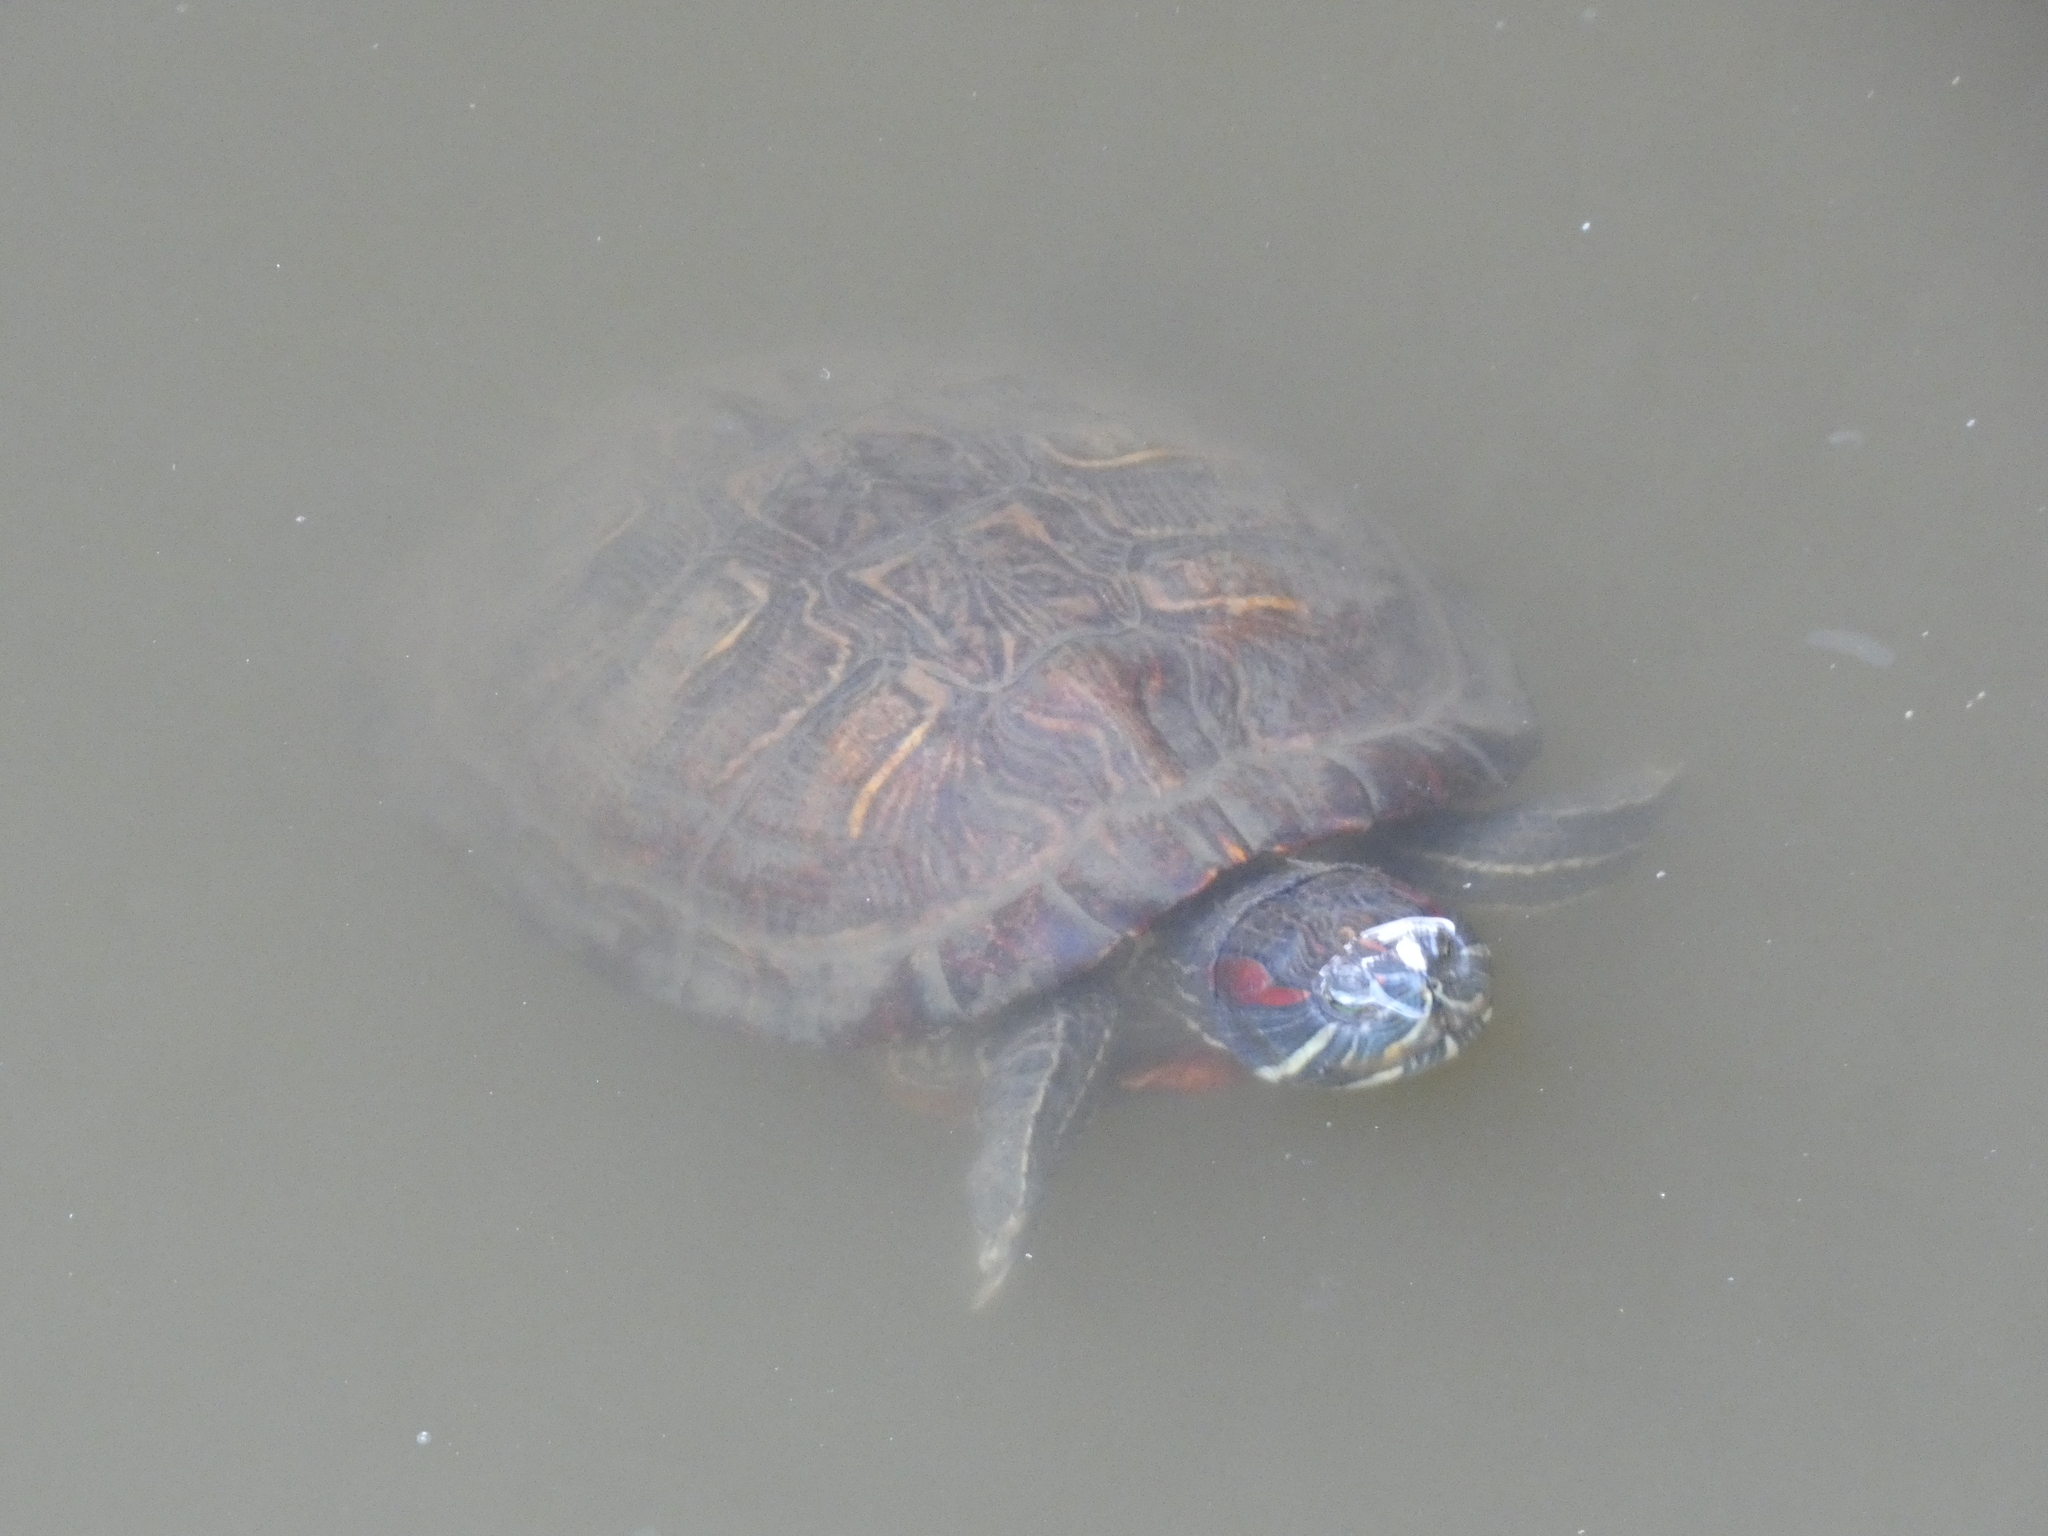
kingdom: Animalia
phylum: Chordata
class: Testudines
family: Emydidae
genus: Trachemys
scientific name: Trachemys scripta
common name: Slider
